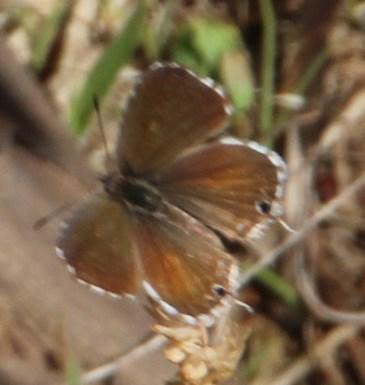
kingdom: Animalia
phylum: Arthropoda
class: Insecta
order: Lepidoptera
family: Lycaenidae
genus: Cacyreus
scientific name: Cacyreus marshalli
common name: Geranium bronze
